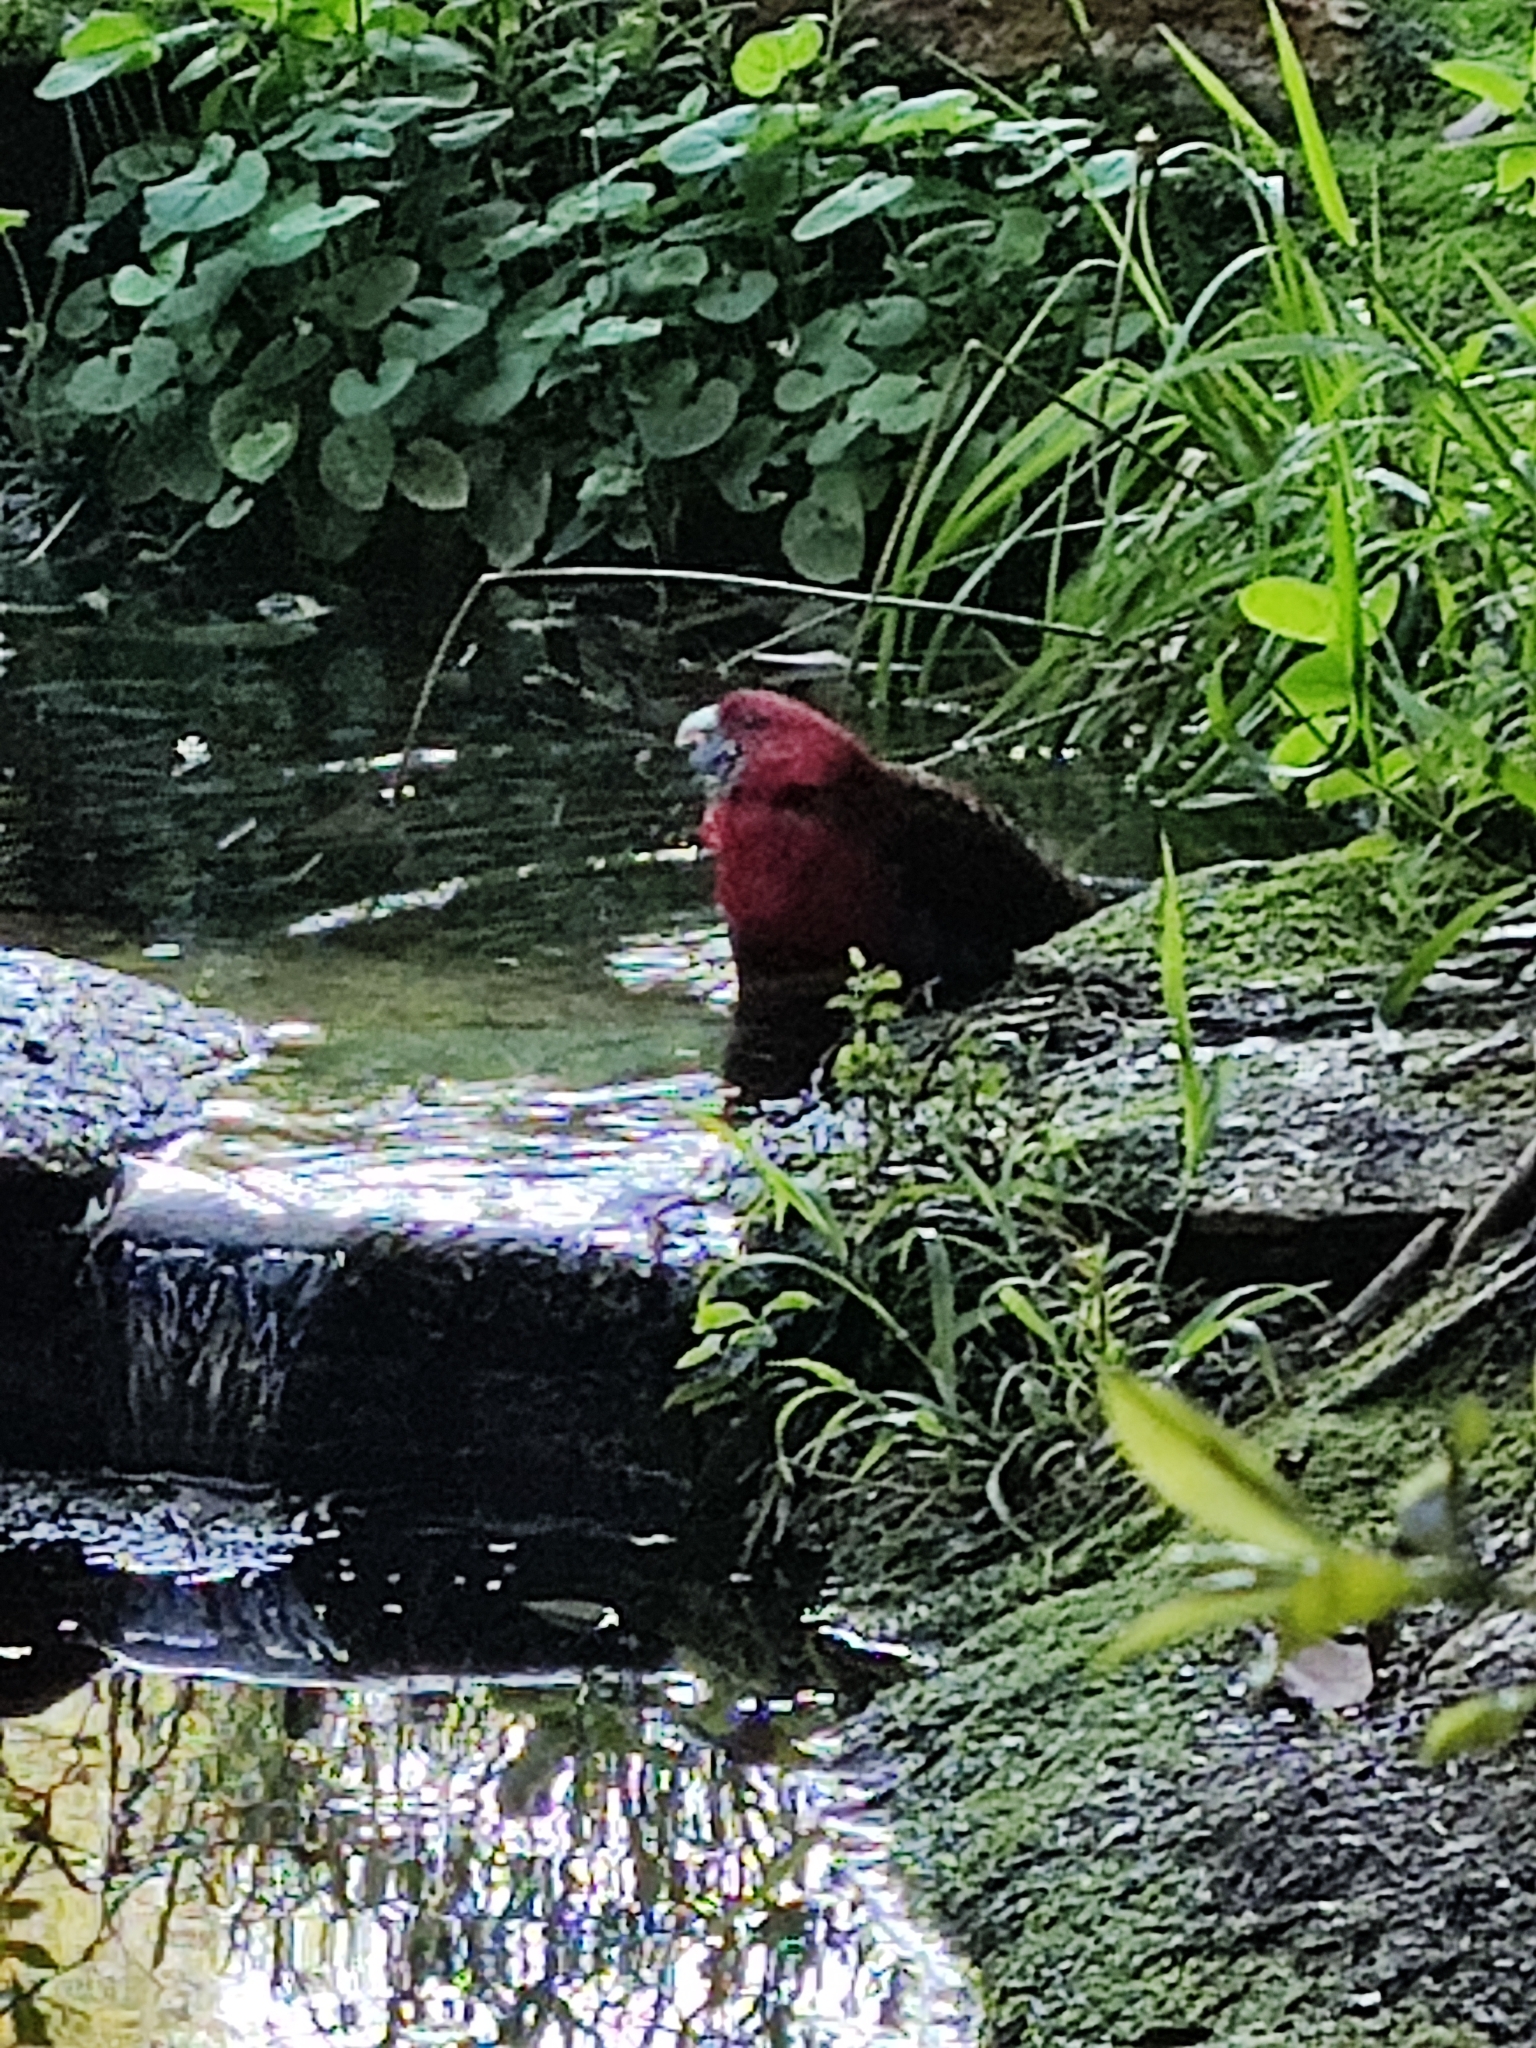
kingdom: Animalia
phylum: Chordata
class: Aves
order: Psittaciformes
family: Psittacidae
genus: Platycercus
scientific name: Platycercus elegans
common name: Crimson rosella
